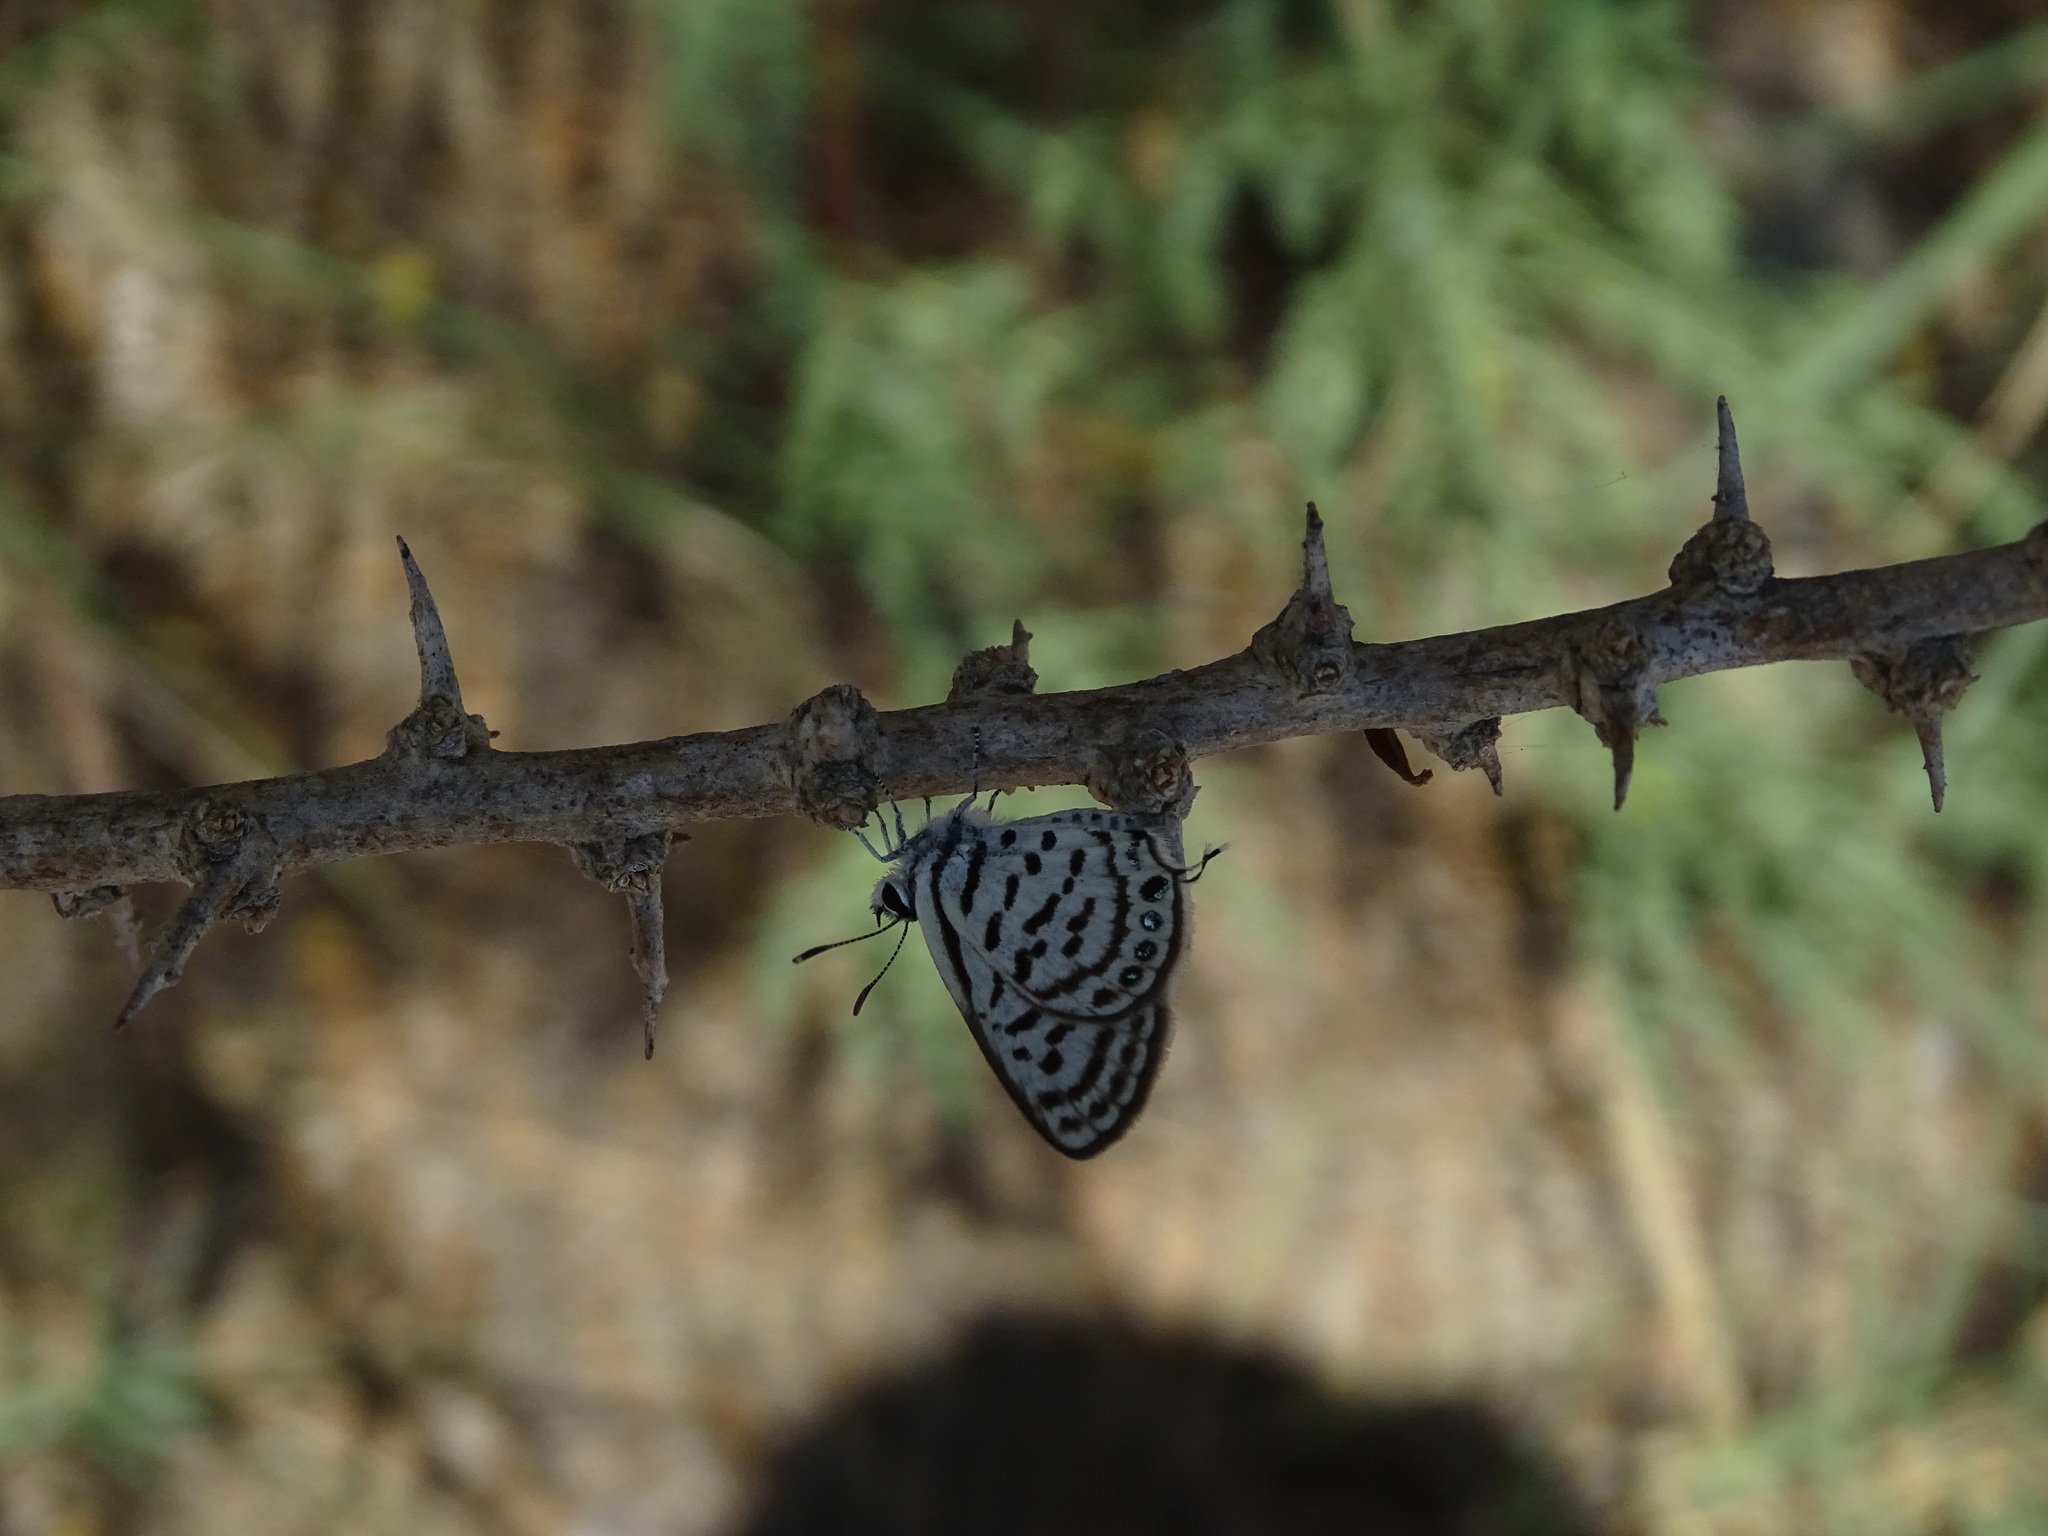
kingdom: Animalia
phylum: Arthropoda
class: Insecta
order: Lepidoptera
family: Lycaenidae
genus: Tarucus
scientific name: Tarucus balkanica
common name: Little tiger blue
